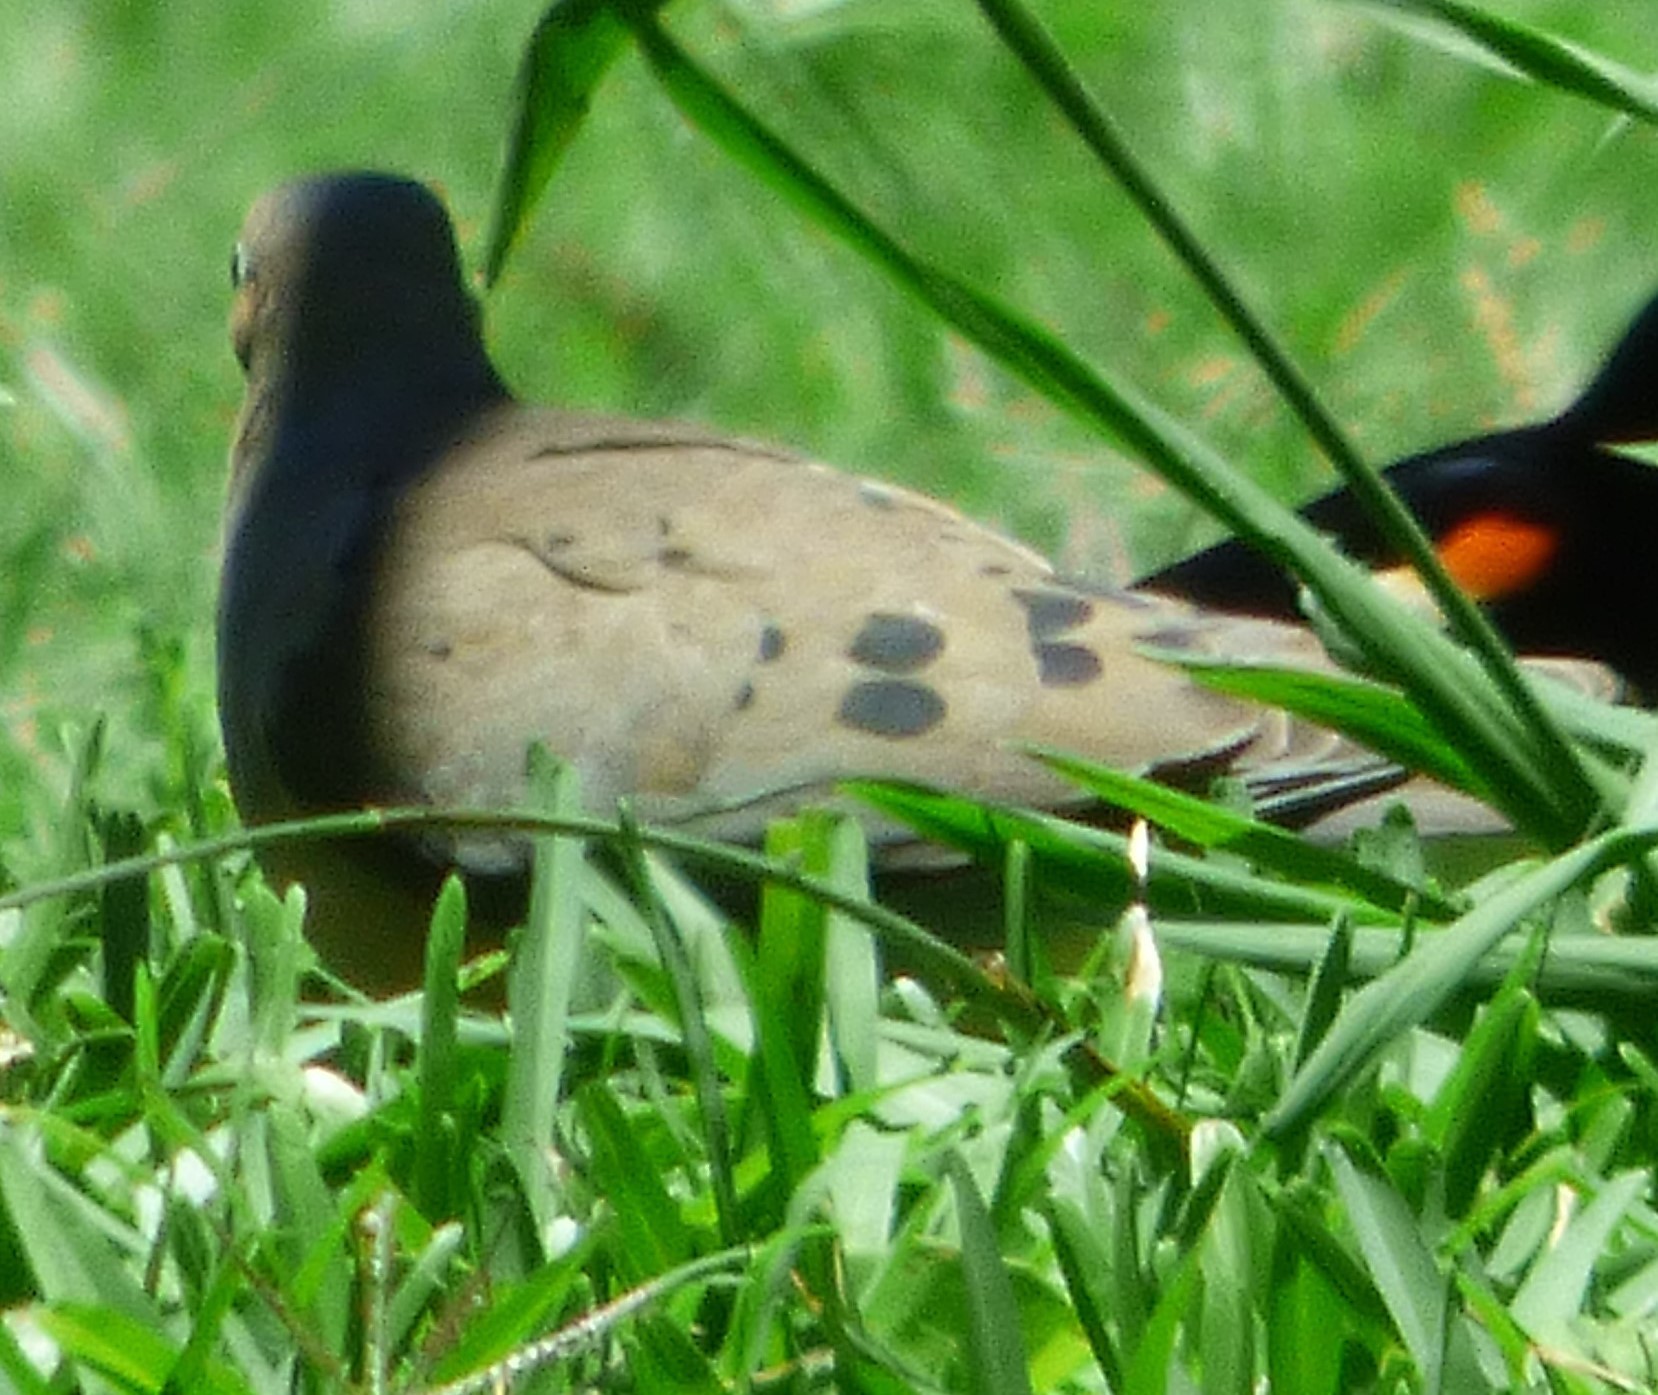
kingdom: Animalia
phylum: Chordata
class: Aves
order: Columbiformes
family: Columbidae
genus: Zenaida
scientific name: Zenaida macroura
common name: Mourning dove
